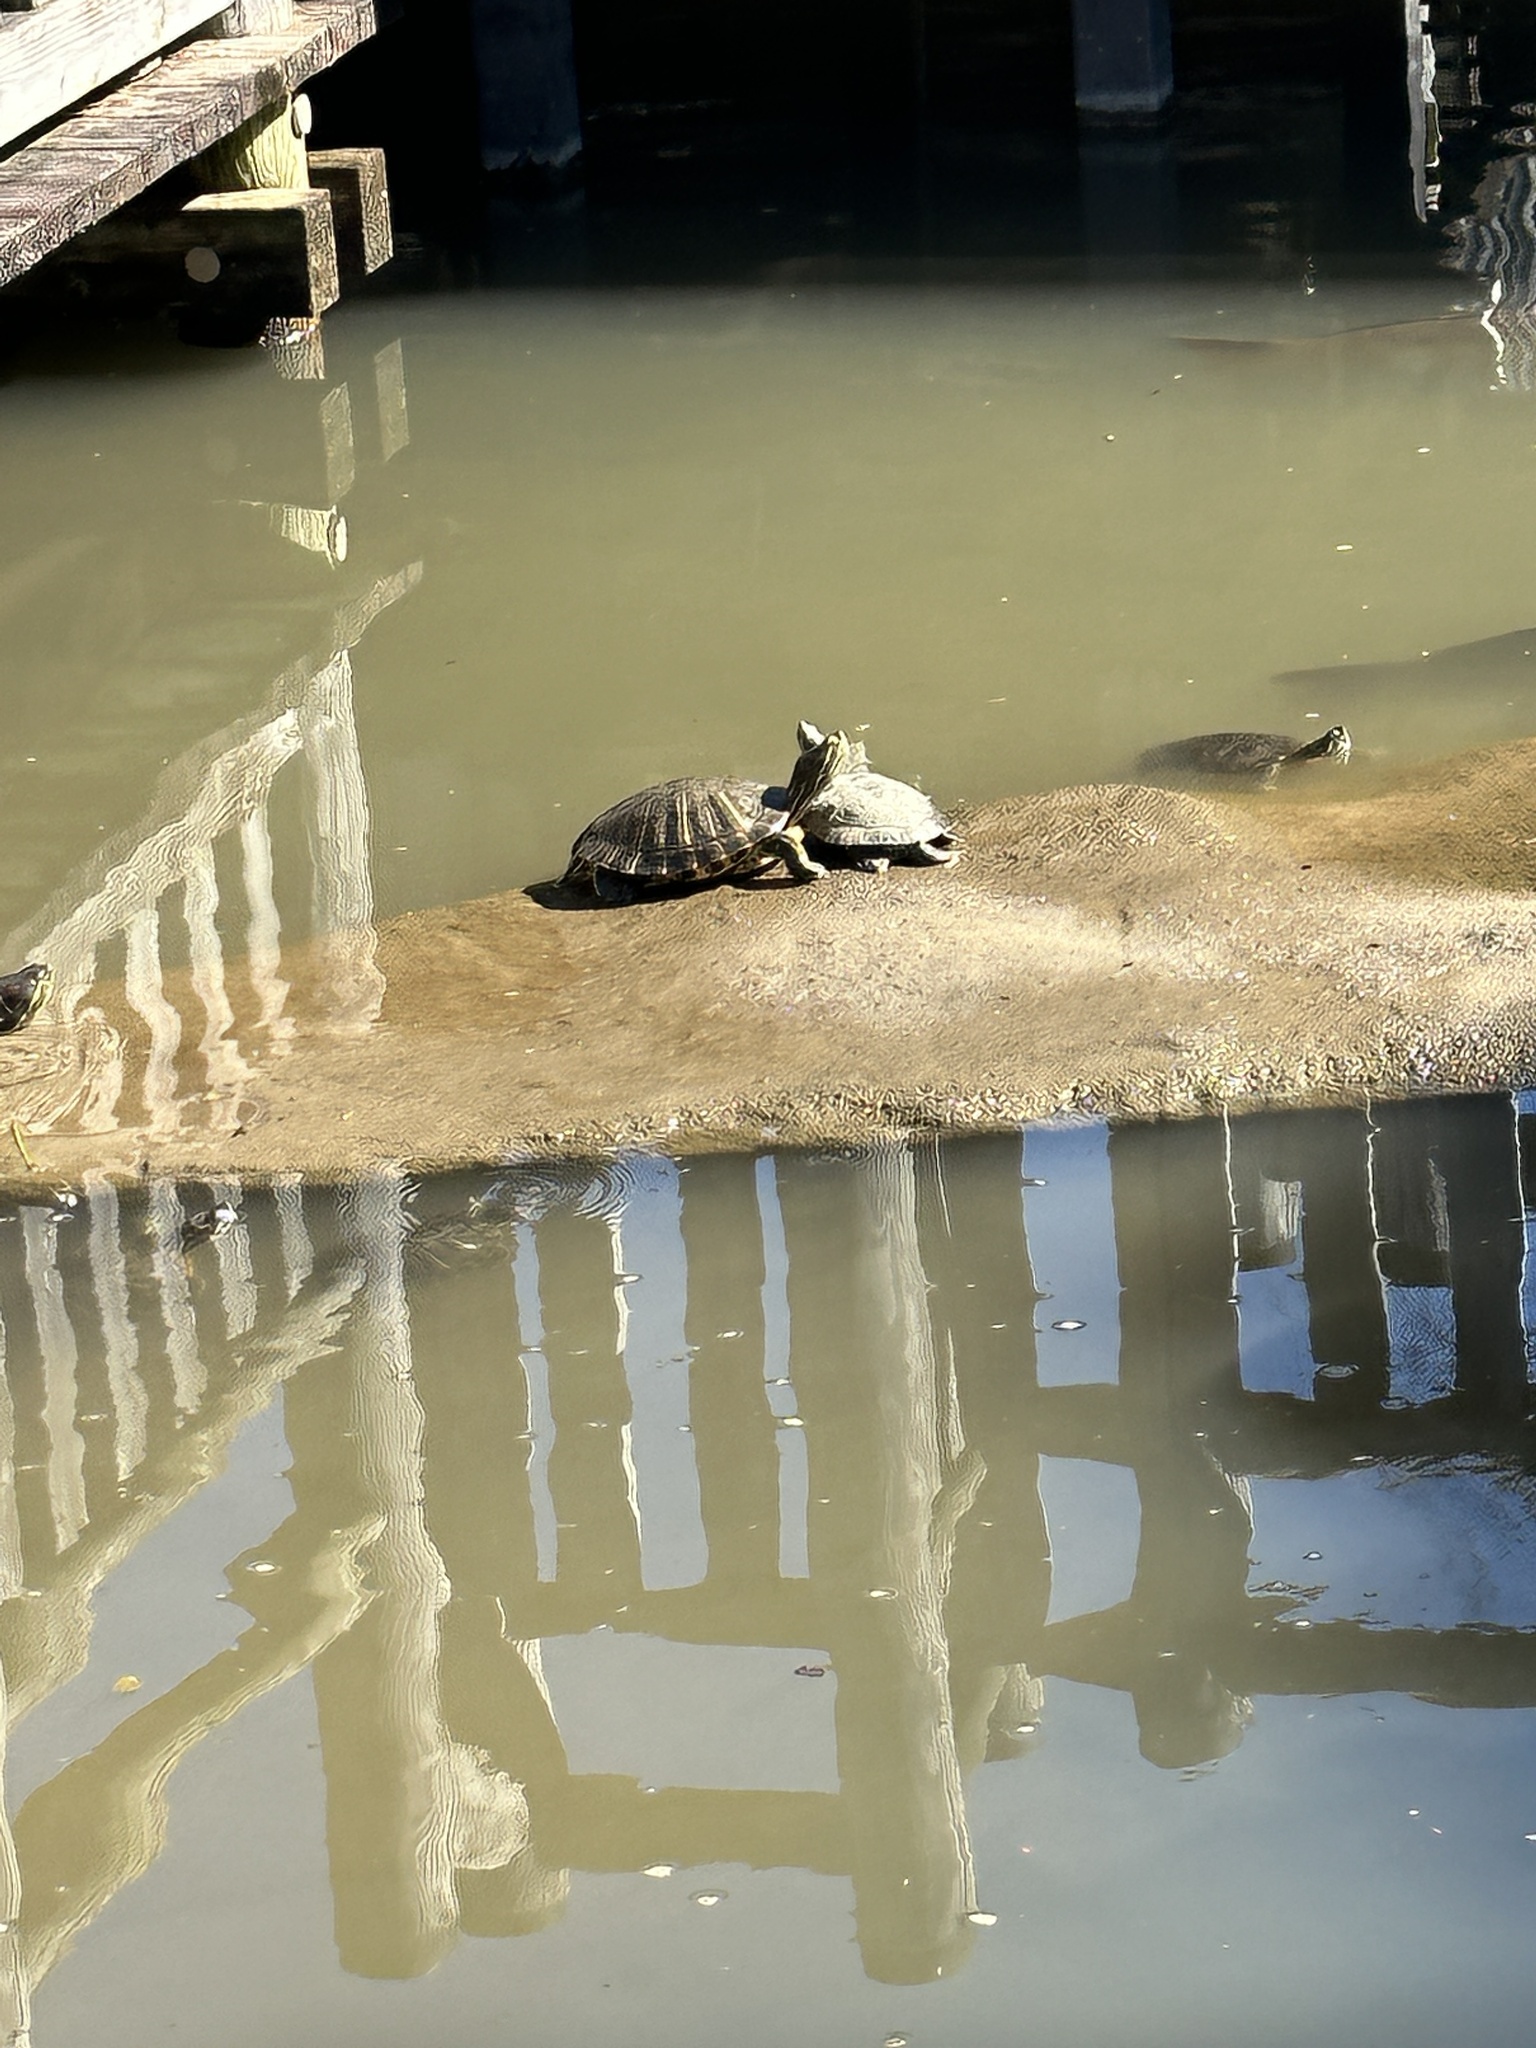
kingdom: Animalia
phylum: Chordata
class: Testudines
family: Emydidae
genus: Trachemys
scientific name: Trachemys scripta
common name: Slider
